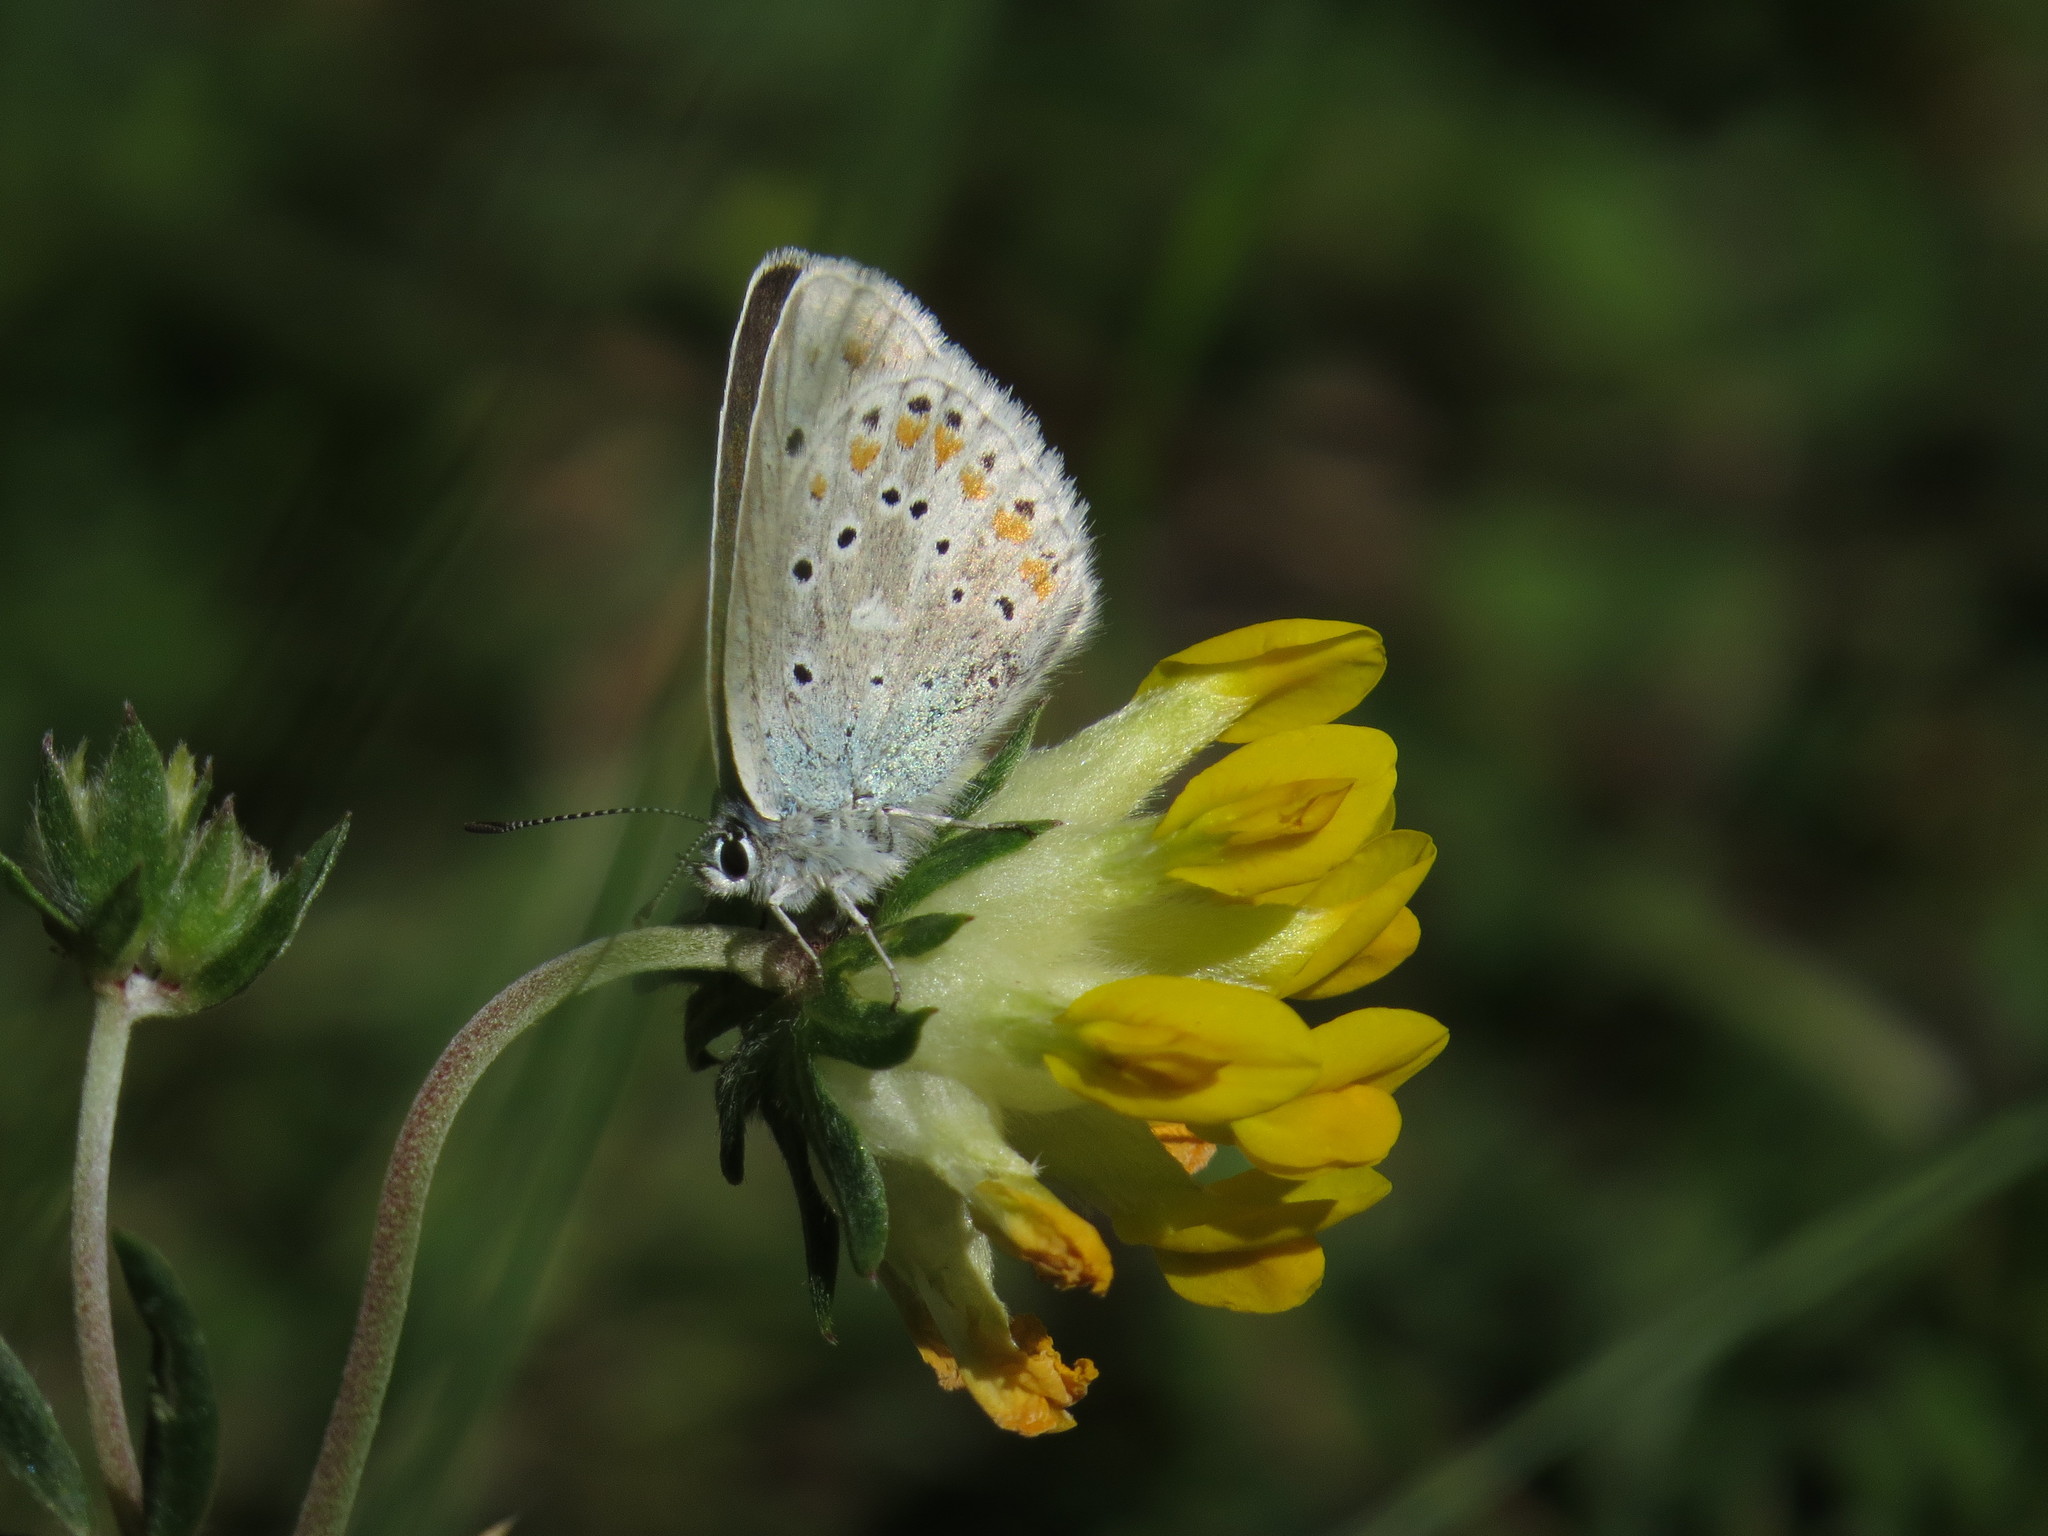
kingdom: Animalia
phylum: Arthropoda
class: Insecta
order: Lepidoptera
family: Lycaenidae
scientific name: Lycaenidae
